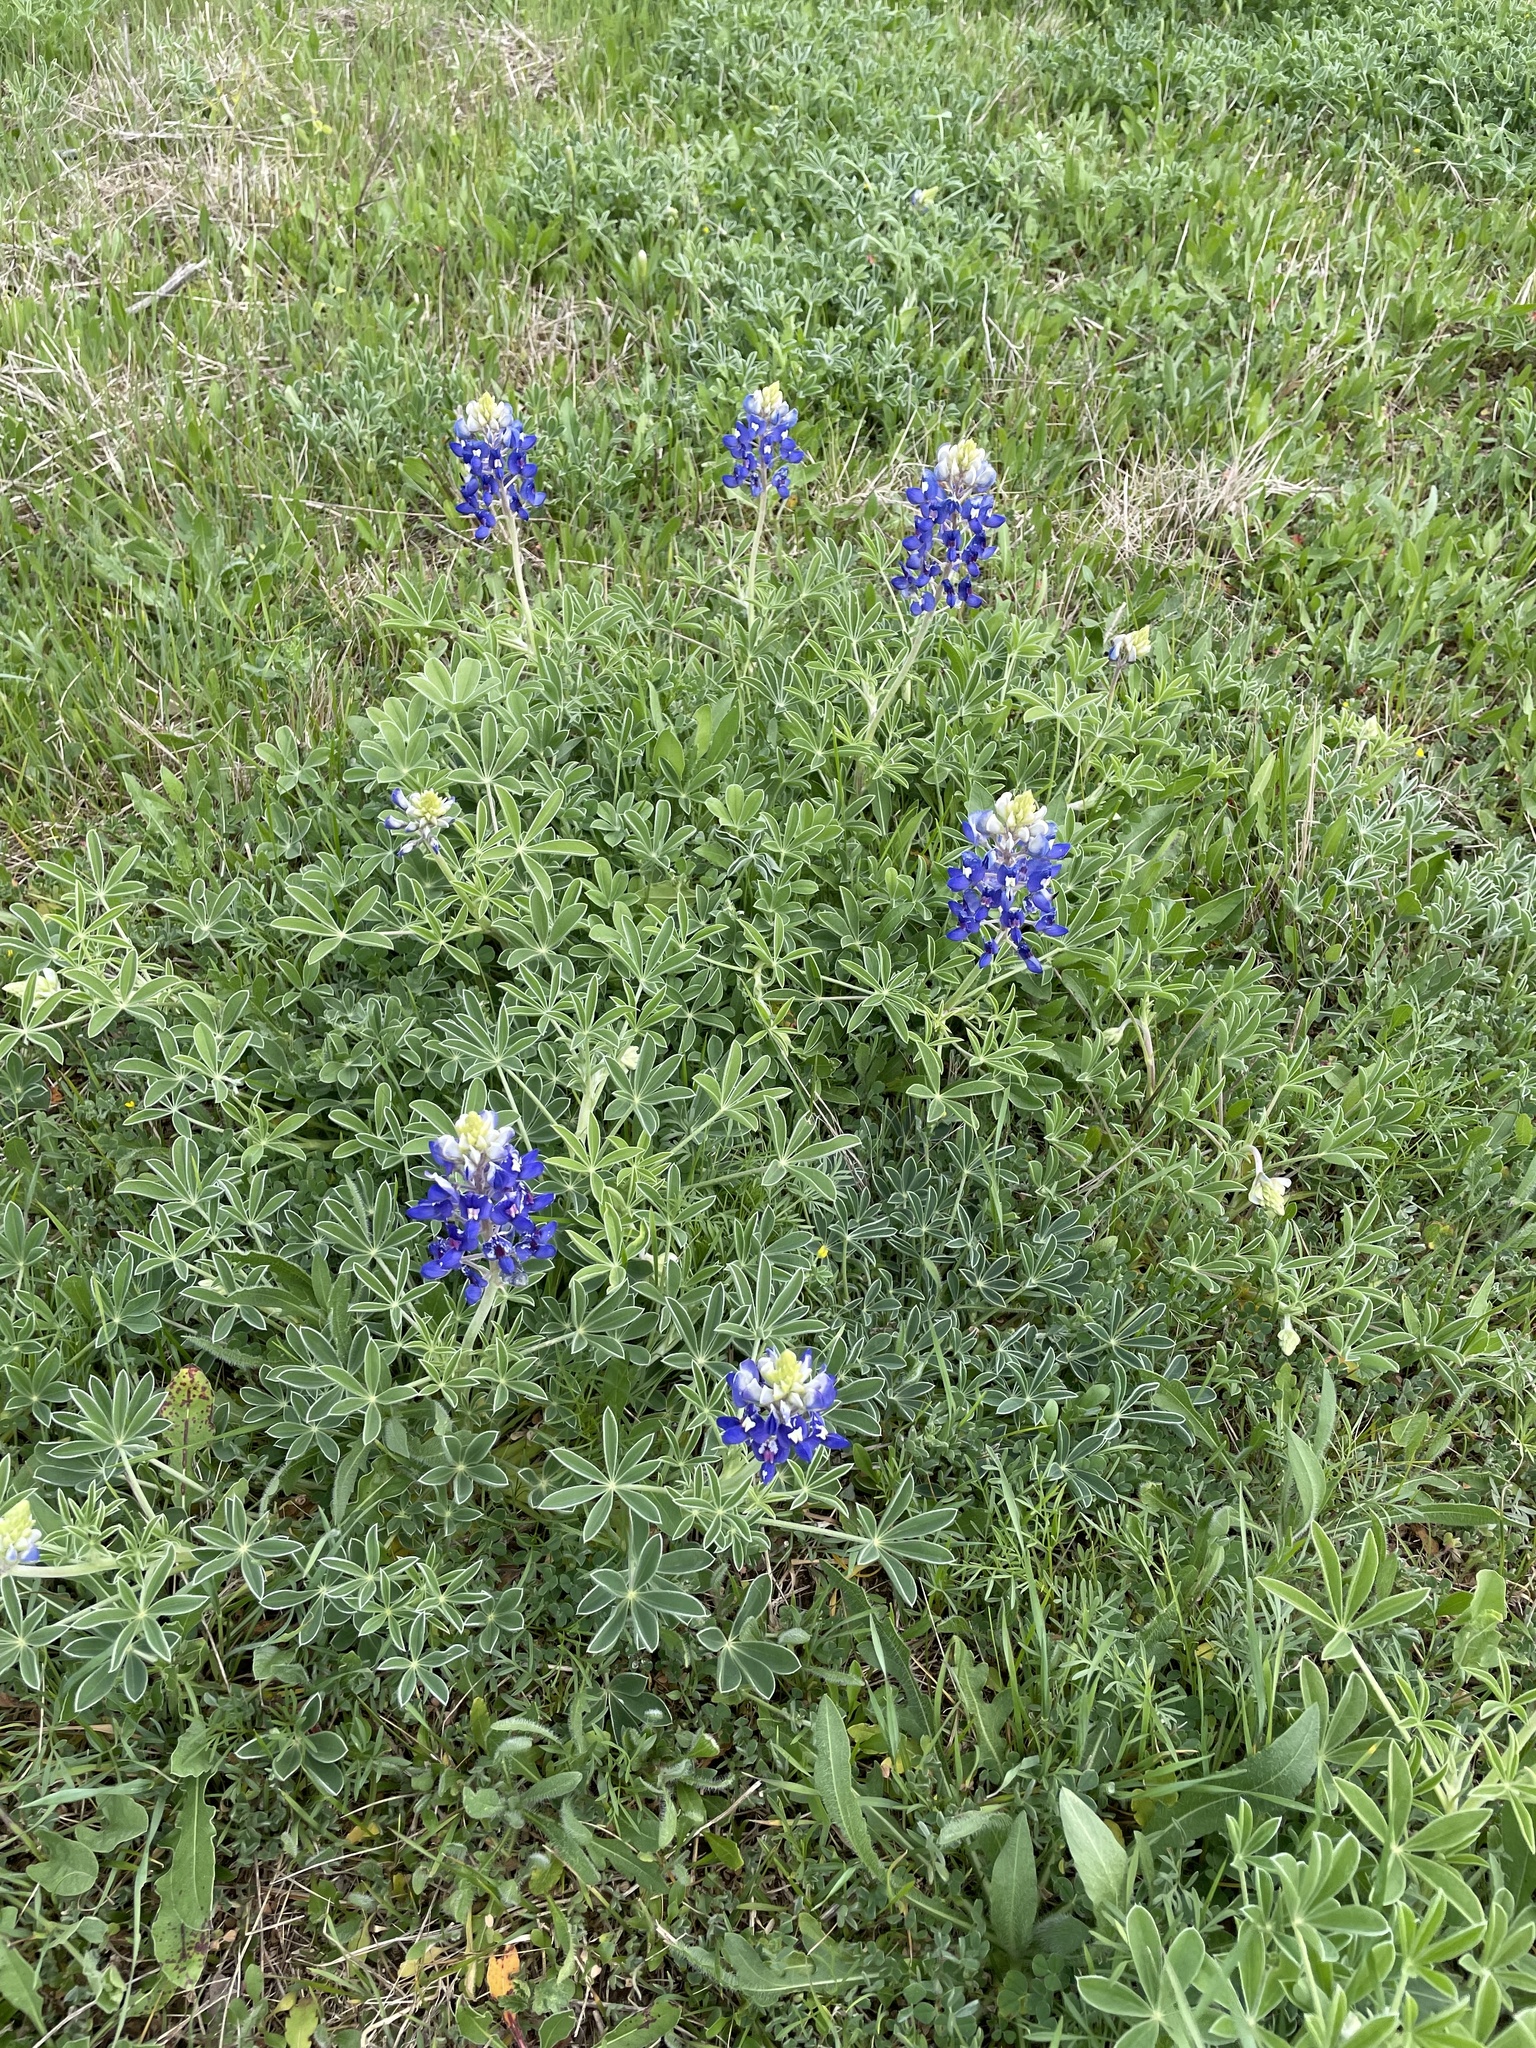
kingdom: Plantae
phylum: Tracheophyta
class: Magnoliopsida
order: Fabales
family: Fabaceae
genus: Lupinus
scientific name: Lupinus texensis
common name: Texas bluebonnet
